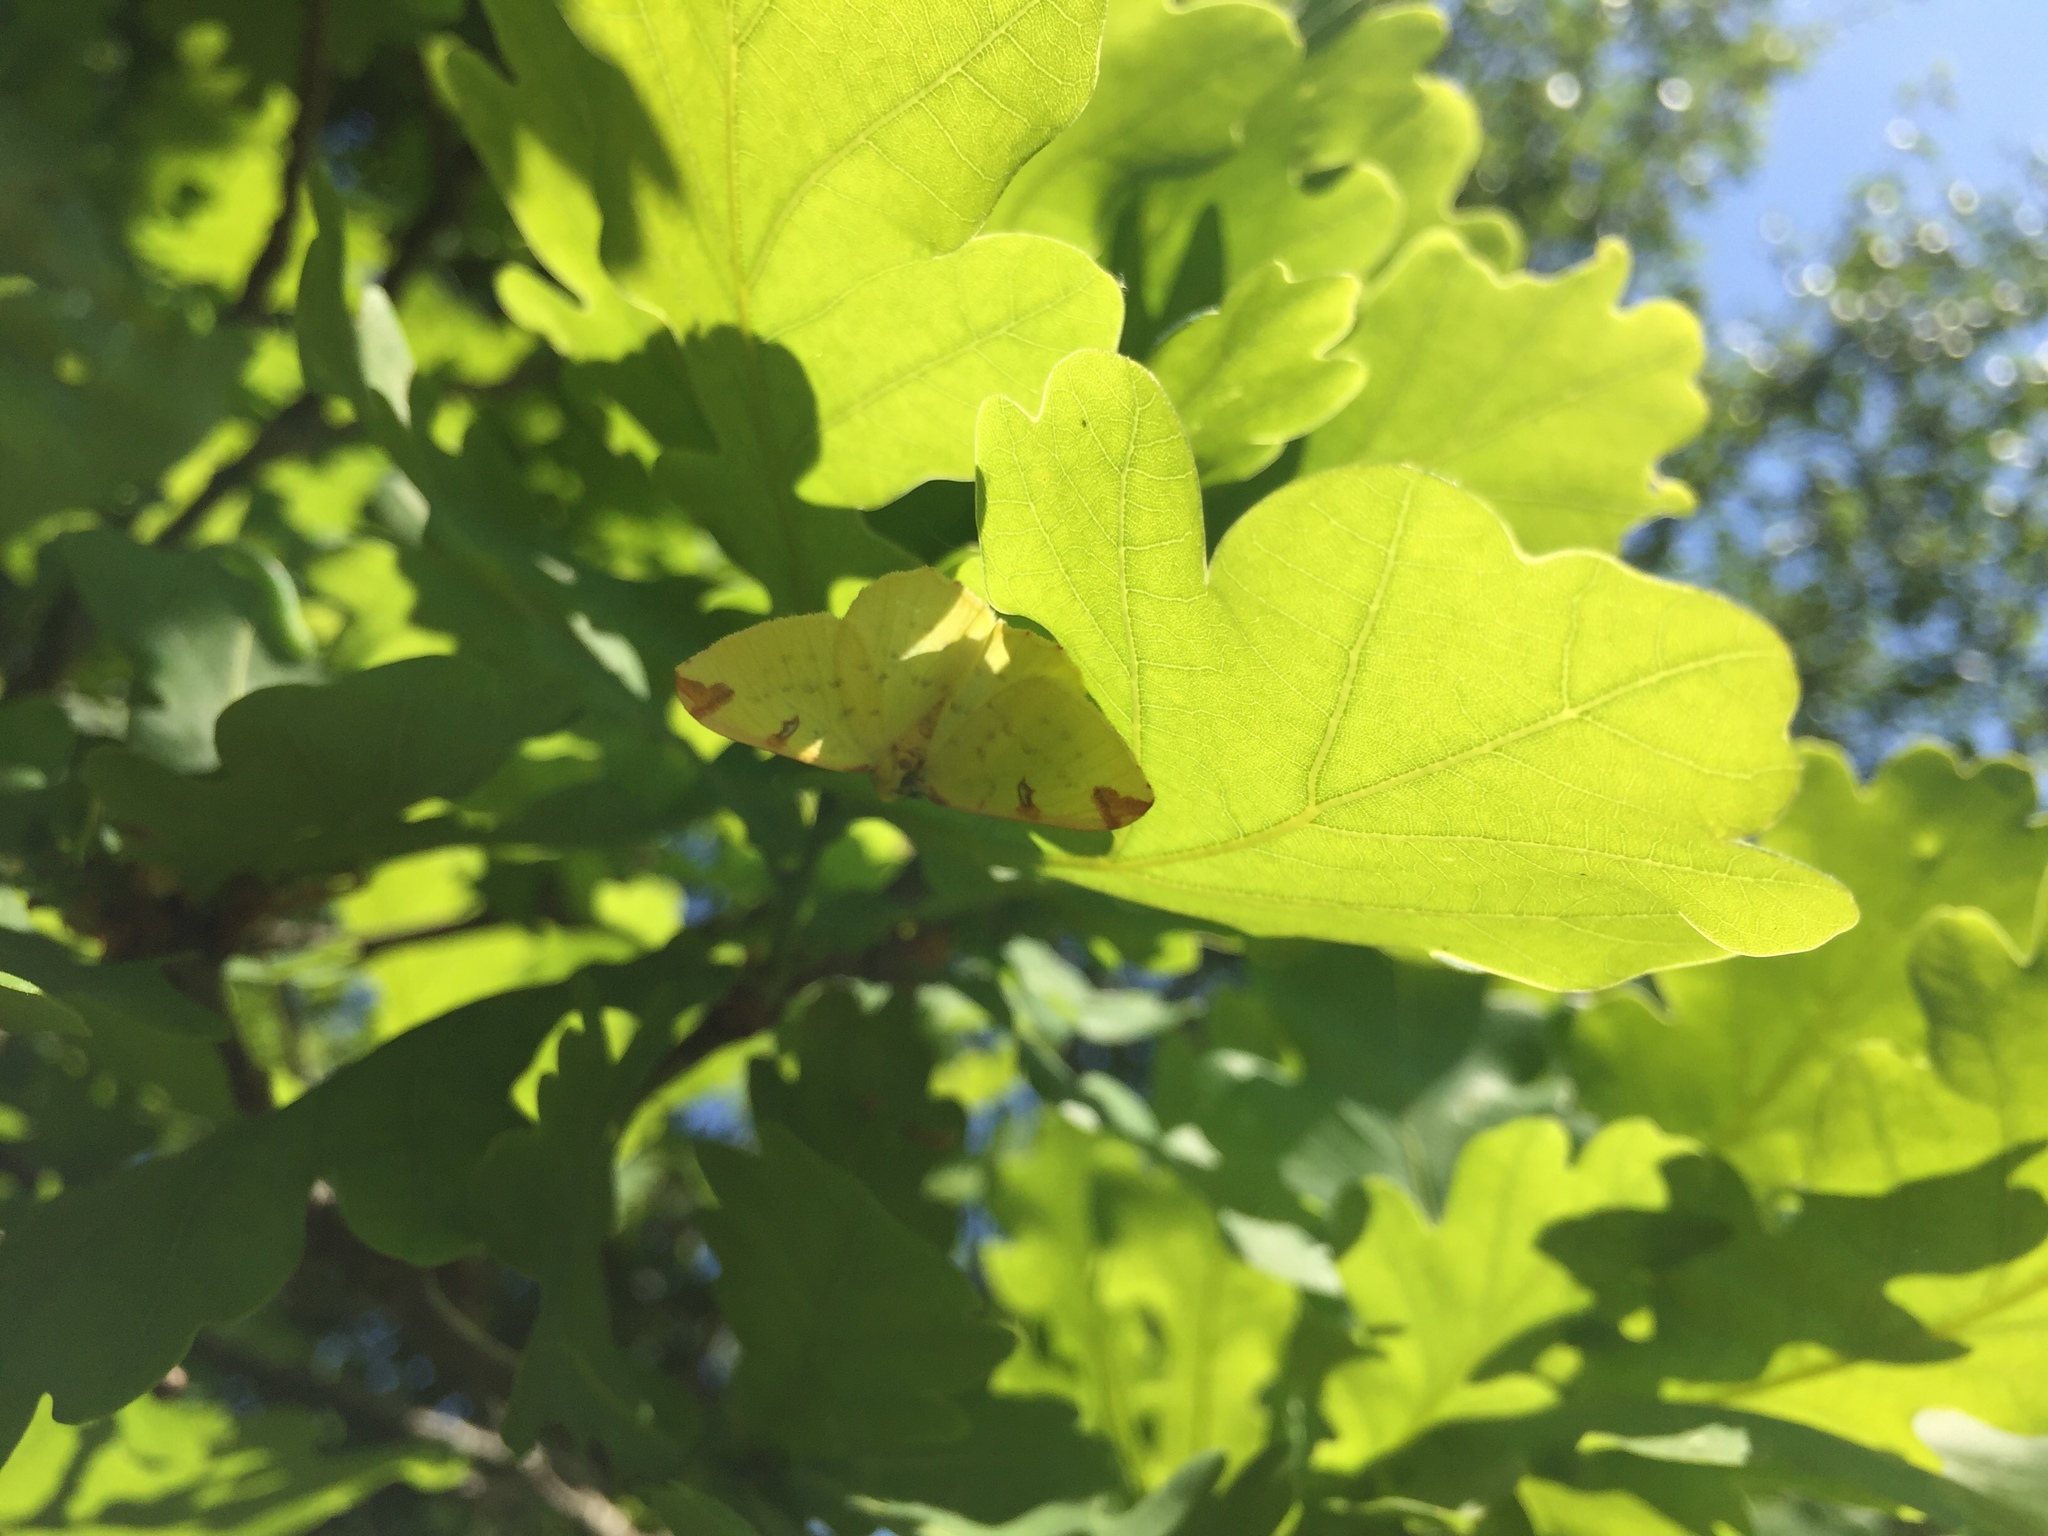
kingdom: Animalia
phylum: Arthropoda
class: Insecta
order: Lepidoptera
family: Geometridae
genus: Opisthograptis
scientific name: Opisthograptis luteolata
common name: Brimstone moth
